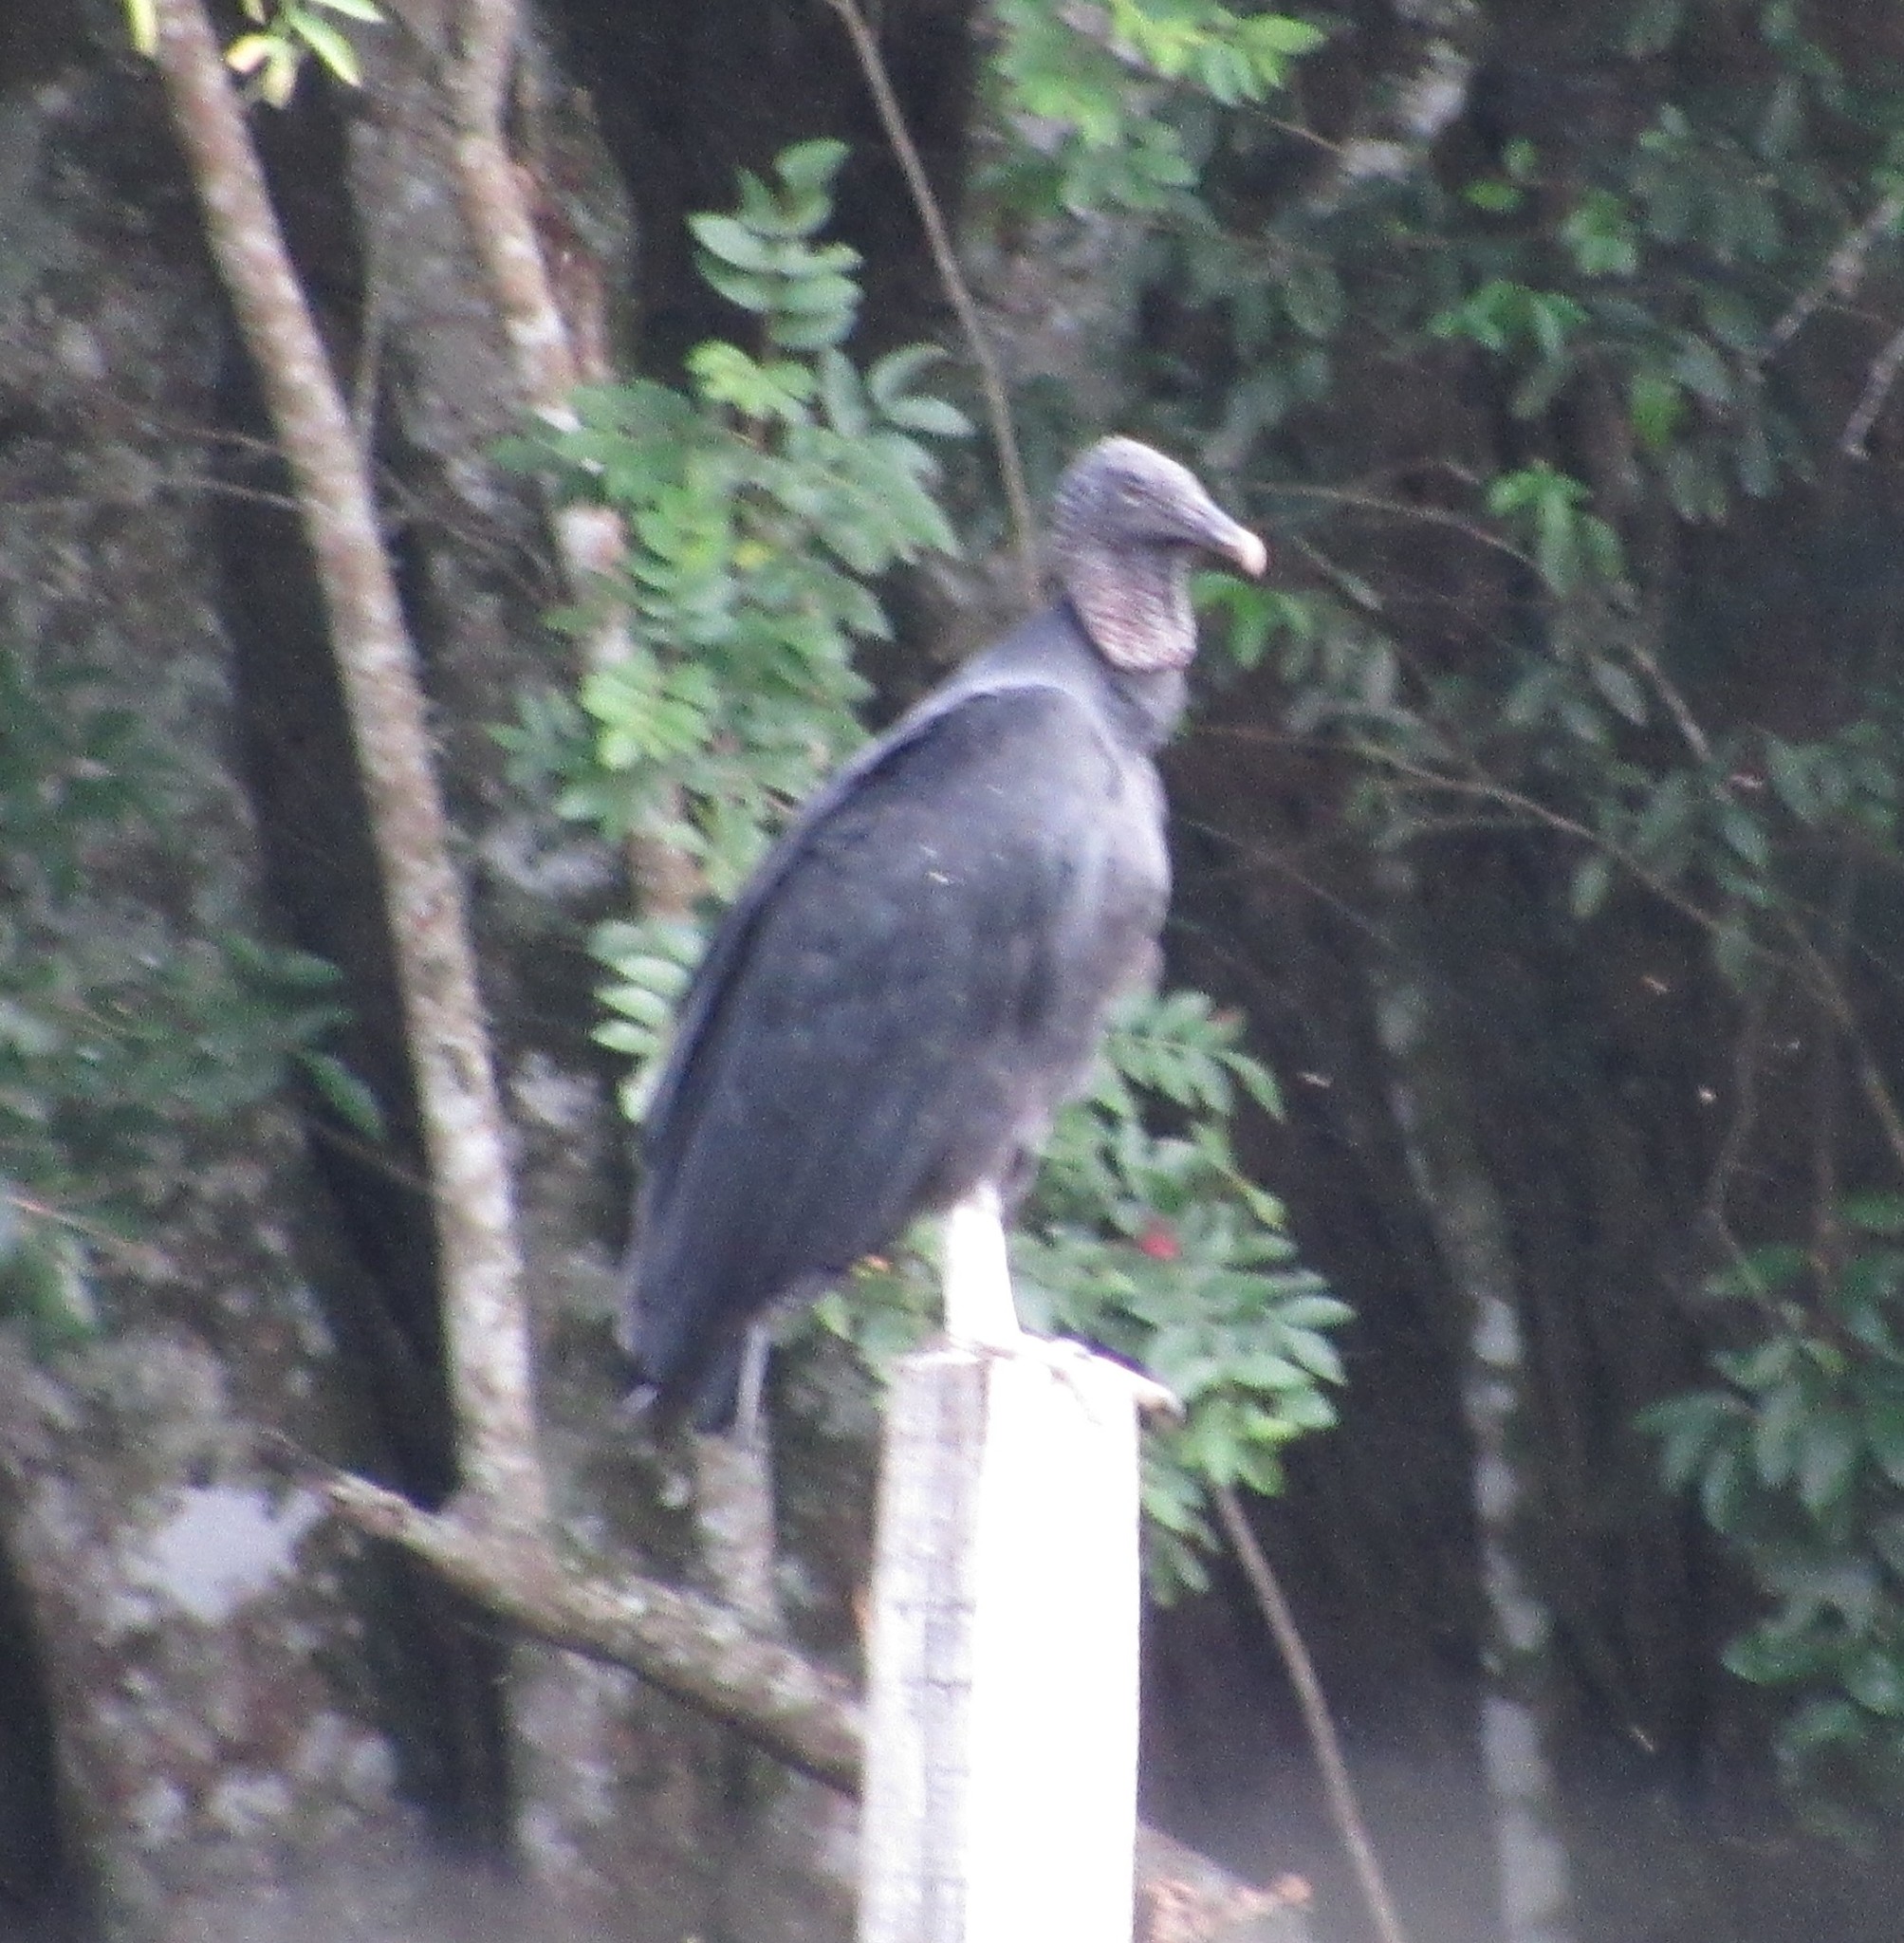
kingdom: Animalia
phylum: Chordata
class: Aves
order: Accipitriformes
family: Cathartidae
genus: Coragyps
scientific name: Coragyps atratus
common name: Black vulture
